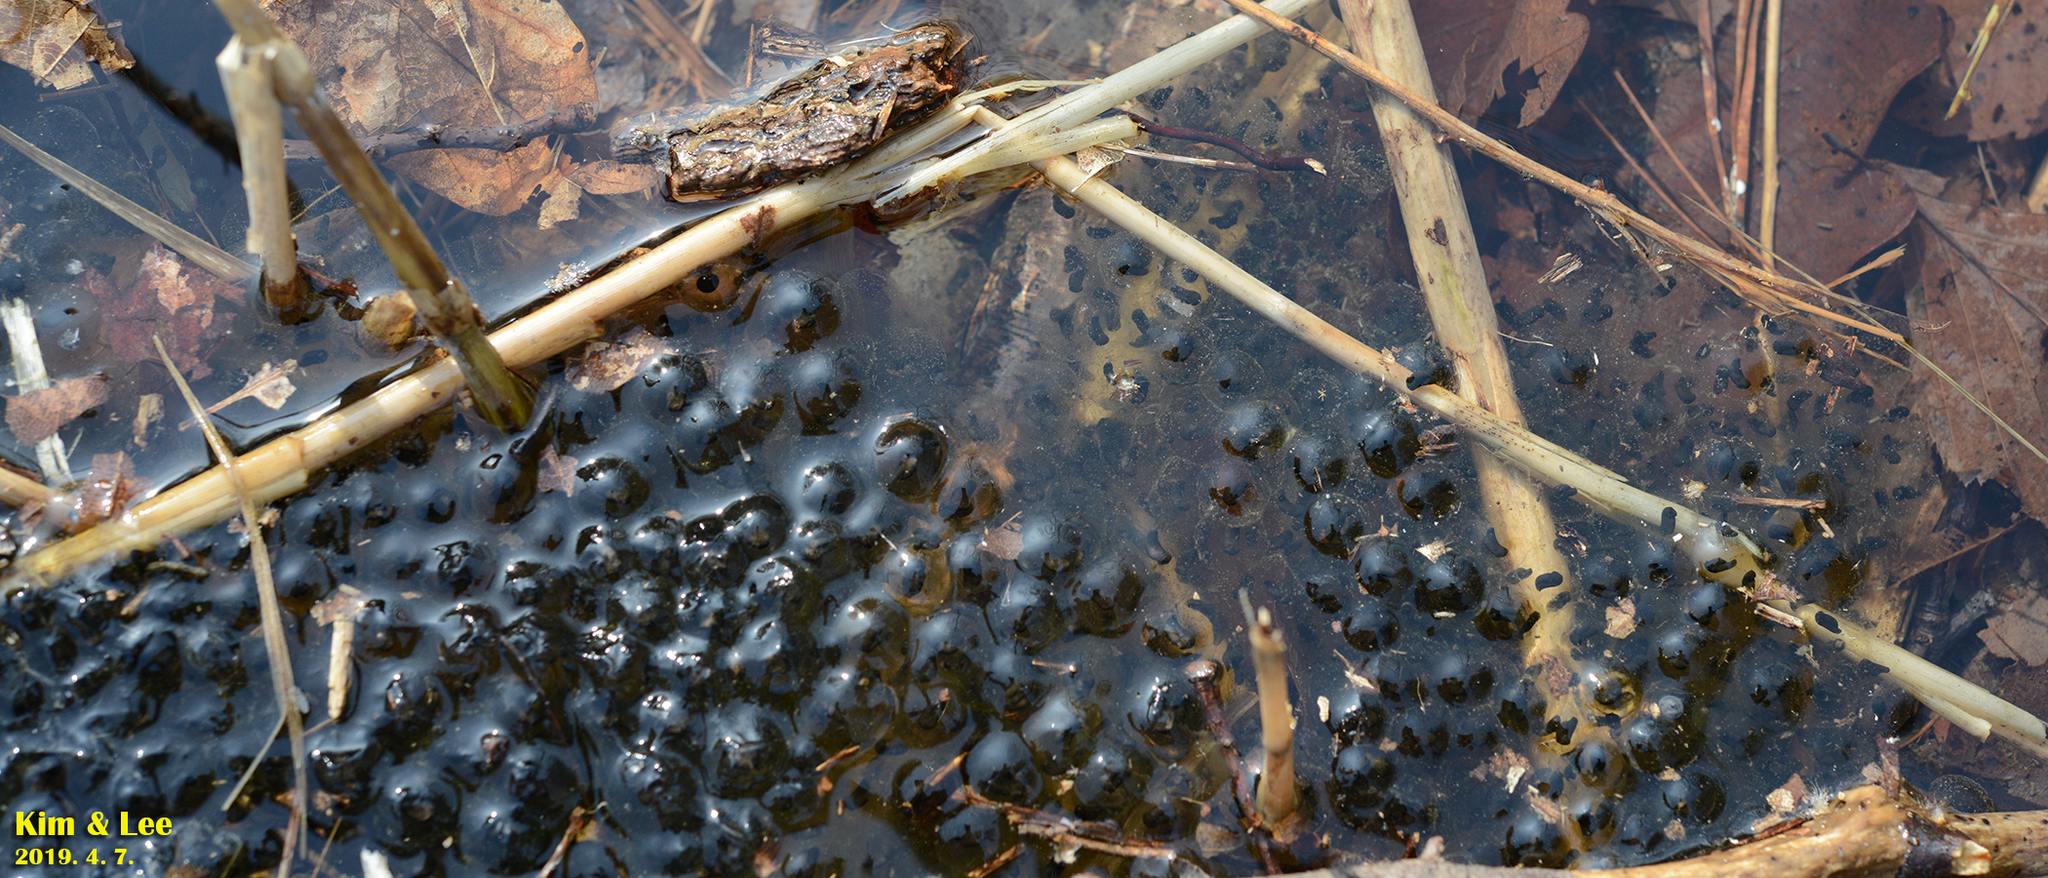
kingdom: Animalia
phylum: Chordata
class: Amphibia
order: Anura
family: Ranidae
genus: Rana
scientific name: Rana huanrenensis
